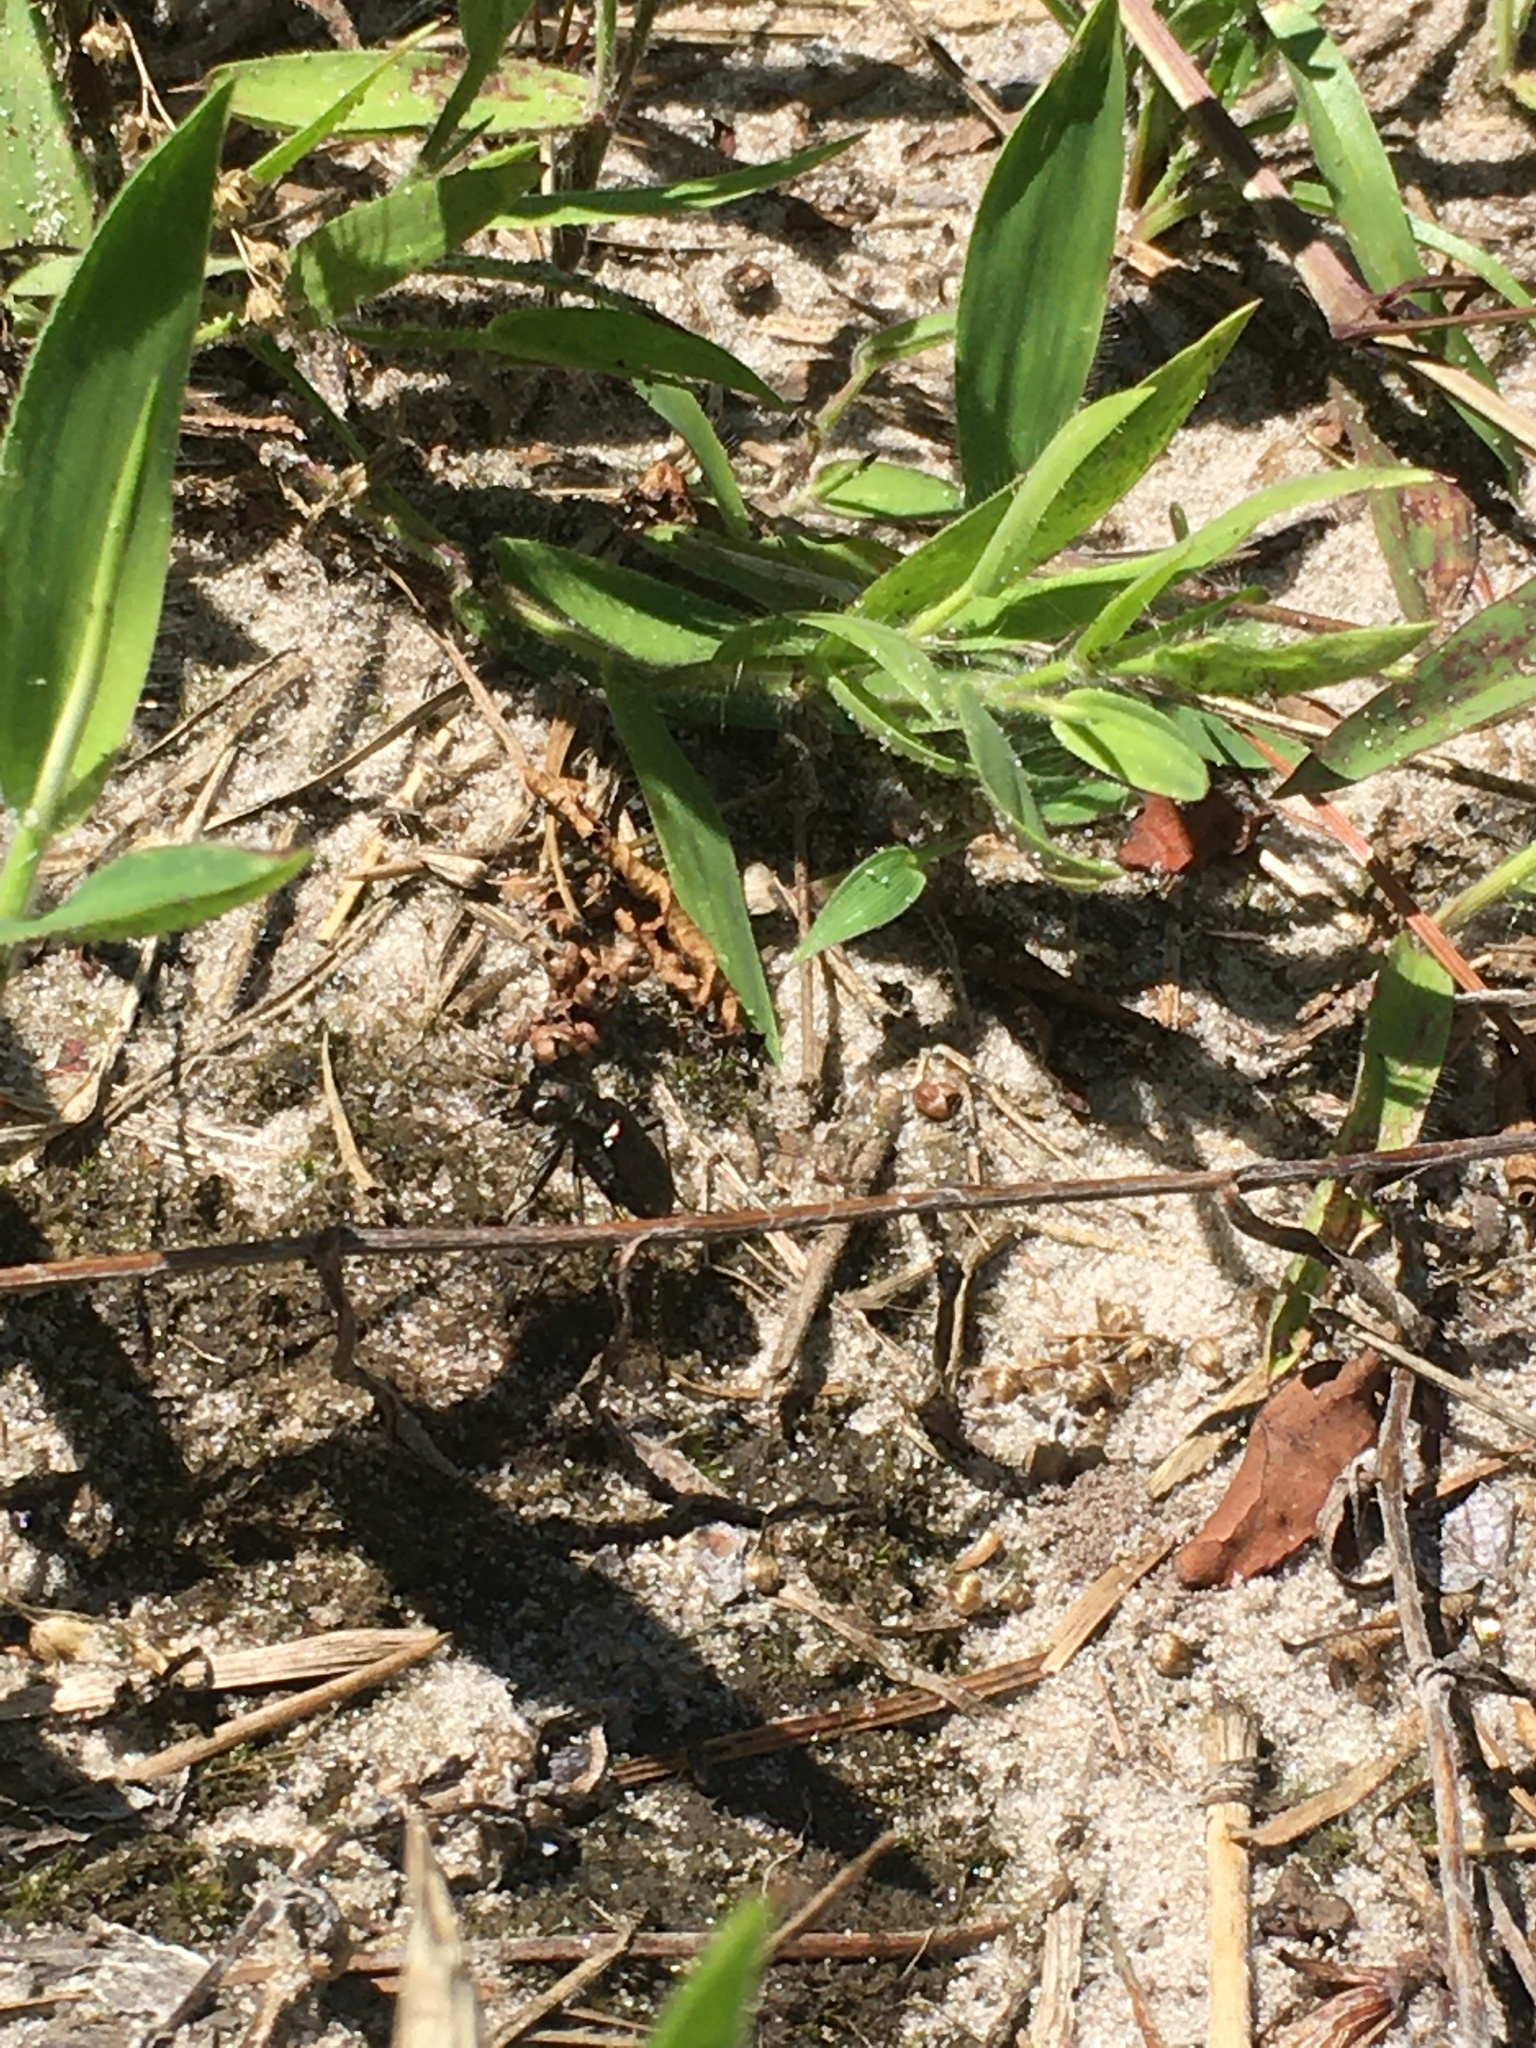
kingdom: Animalia
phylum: Arthropoda
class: Insecta
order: Coleoptera
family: Carabidae
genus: Cicindela
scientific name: Cicindela punctulata
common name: Punctured tiger beetle
